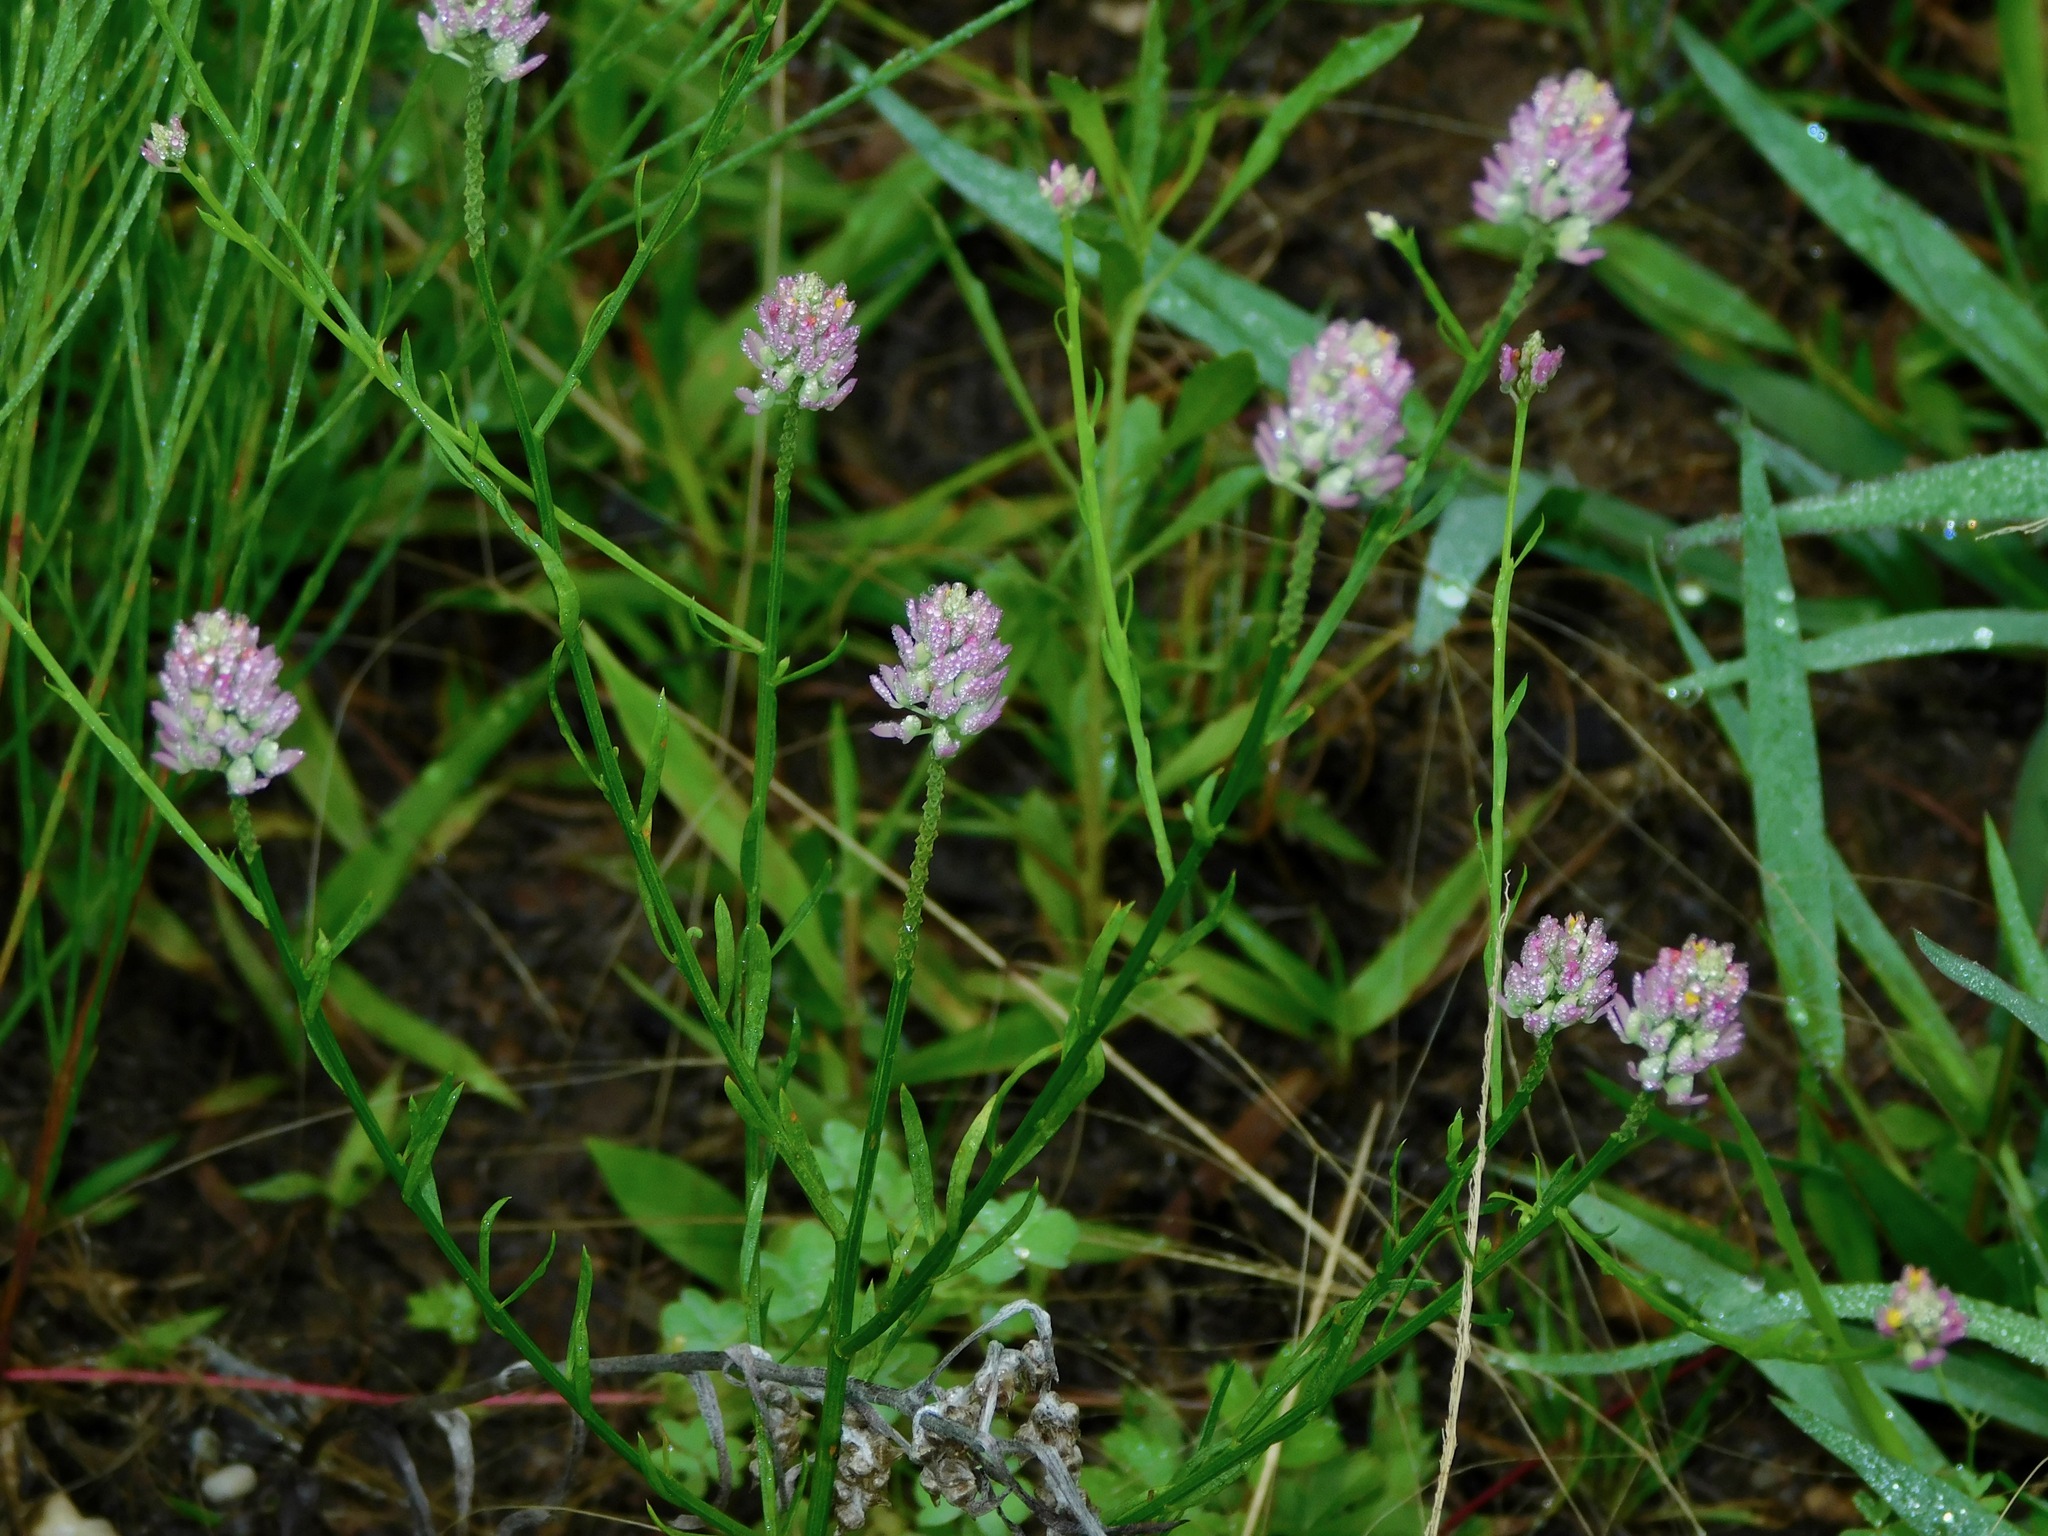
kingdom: Plantae
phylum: Tracheophyta
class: Magnoliopsida
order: Fabales
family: Polygalaceae
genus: Polygala
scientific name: Polygala curtissii
